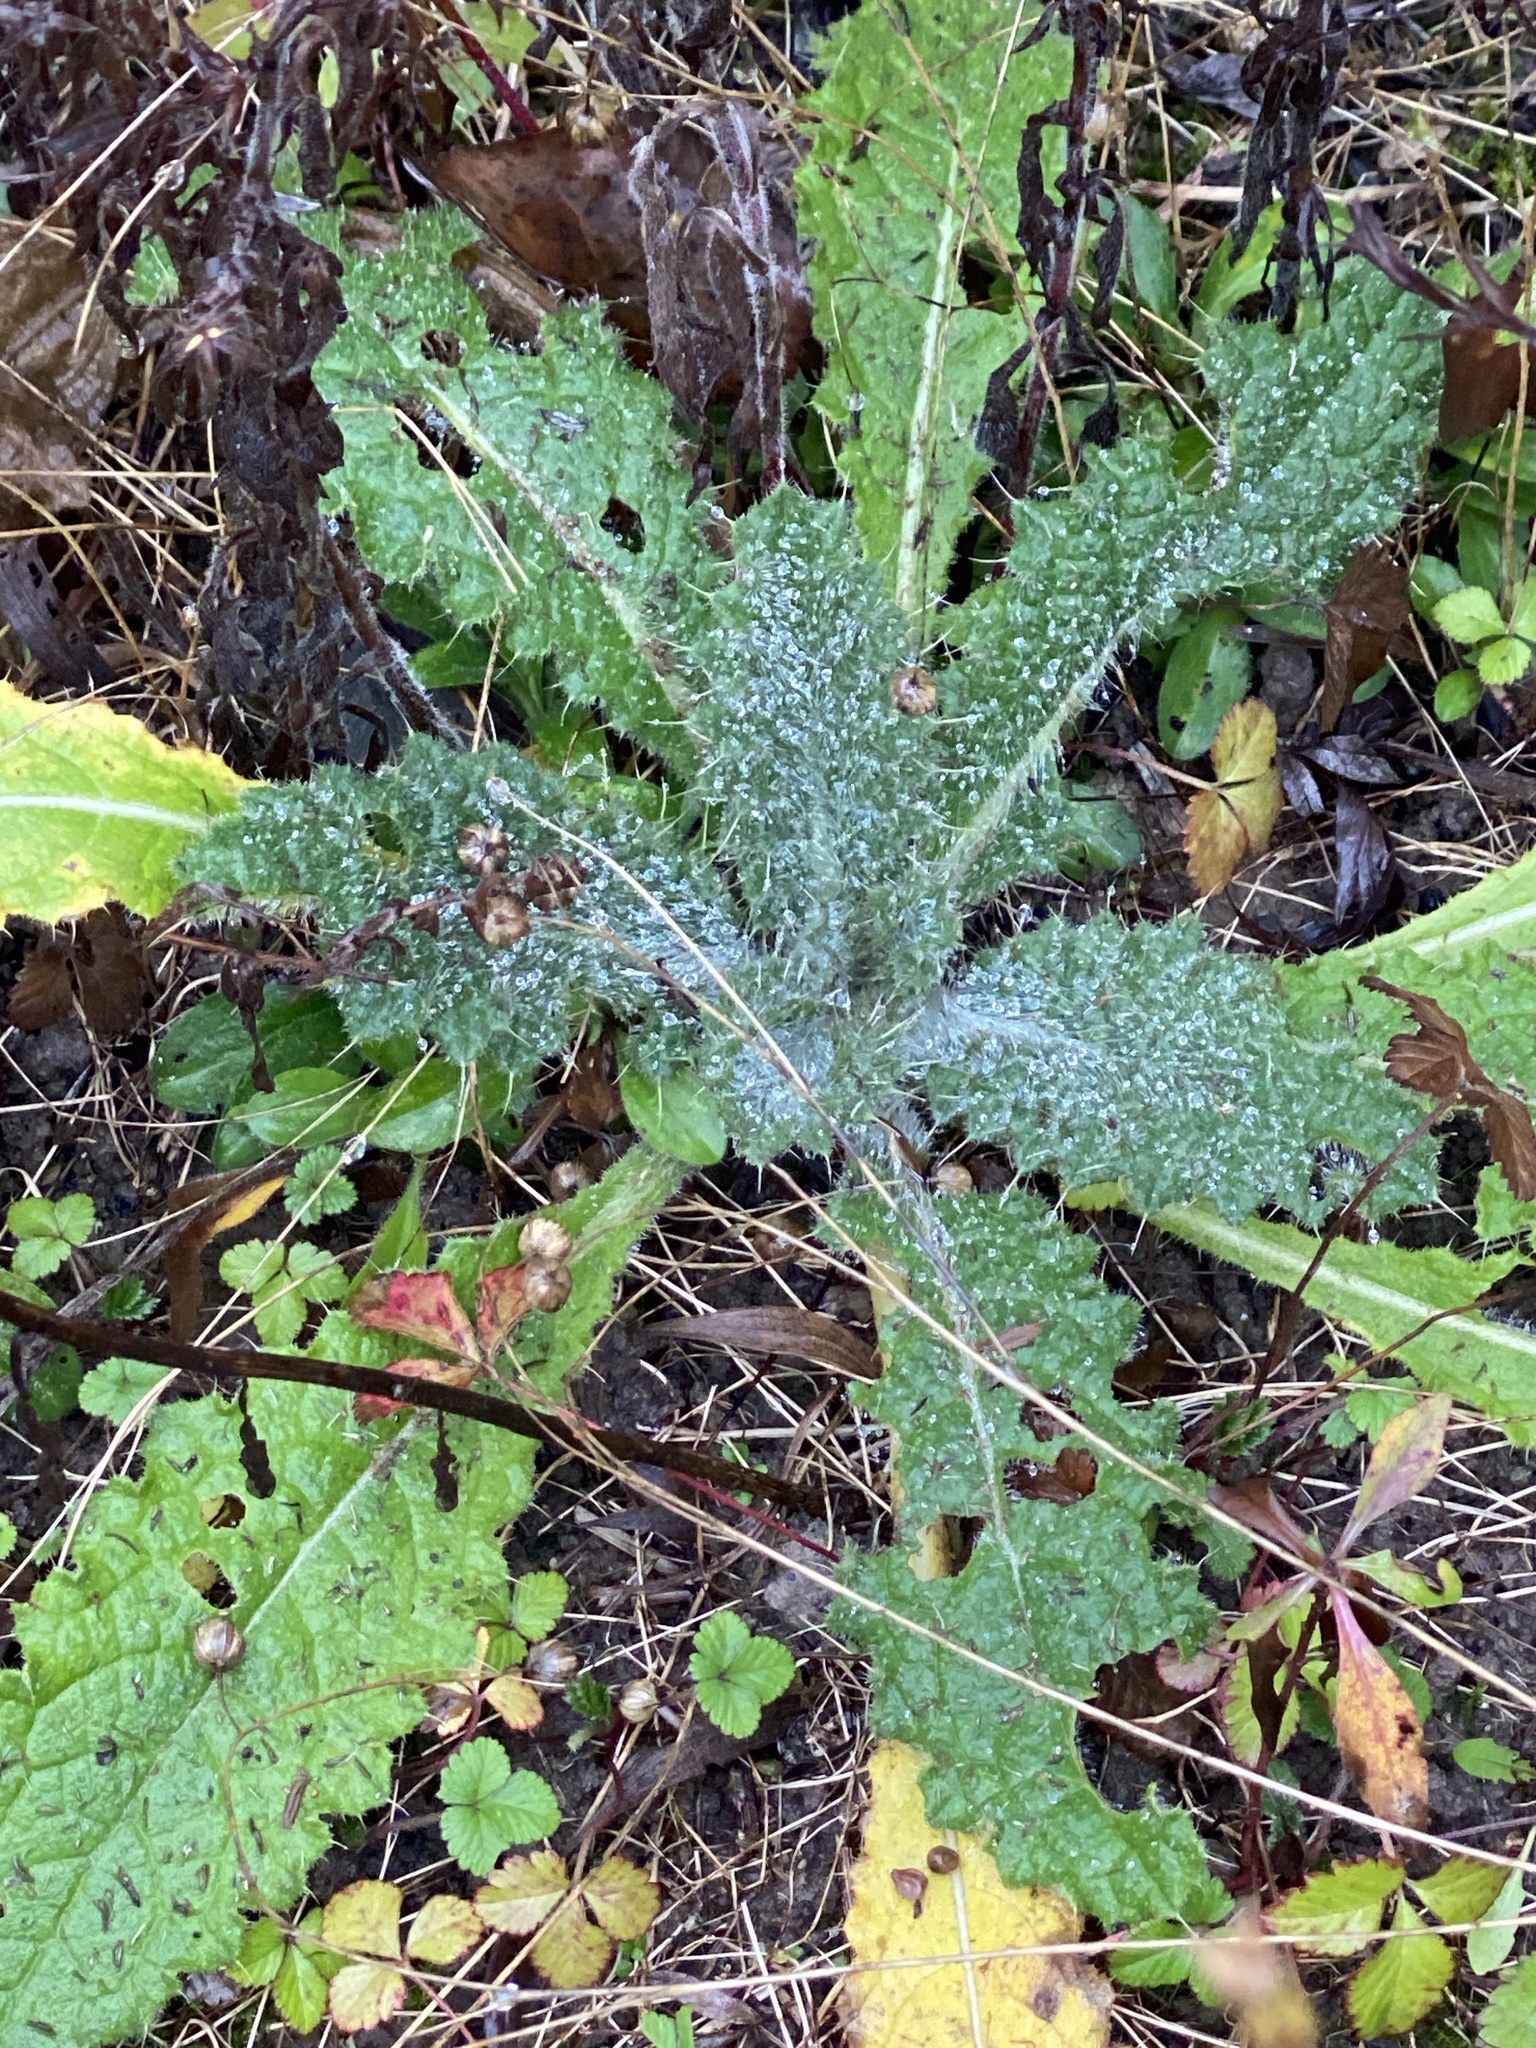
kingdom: Plantae
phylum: Tracheophyta
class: Magnoliopsida
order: Asterales
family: Asteraceae
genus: Cirsium
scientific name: Cirsium vulgare
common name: Bull thistle
